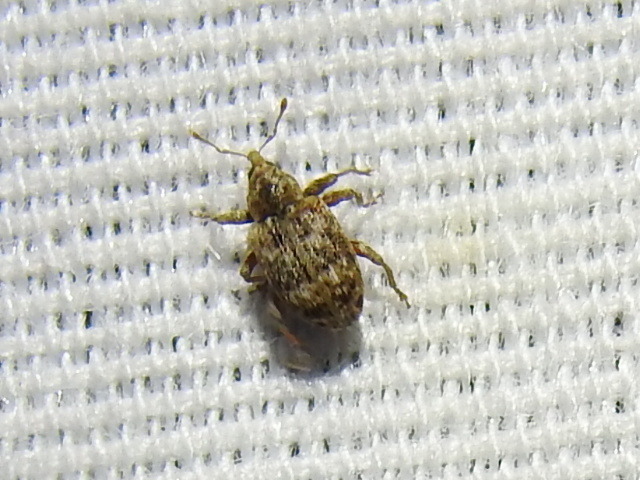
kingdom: Animalia
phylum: Arthropoda
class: Insecta
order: Coleoptera
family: Curculionidae
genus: Conotrachelus
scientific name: Conotrachelus recessus
